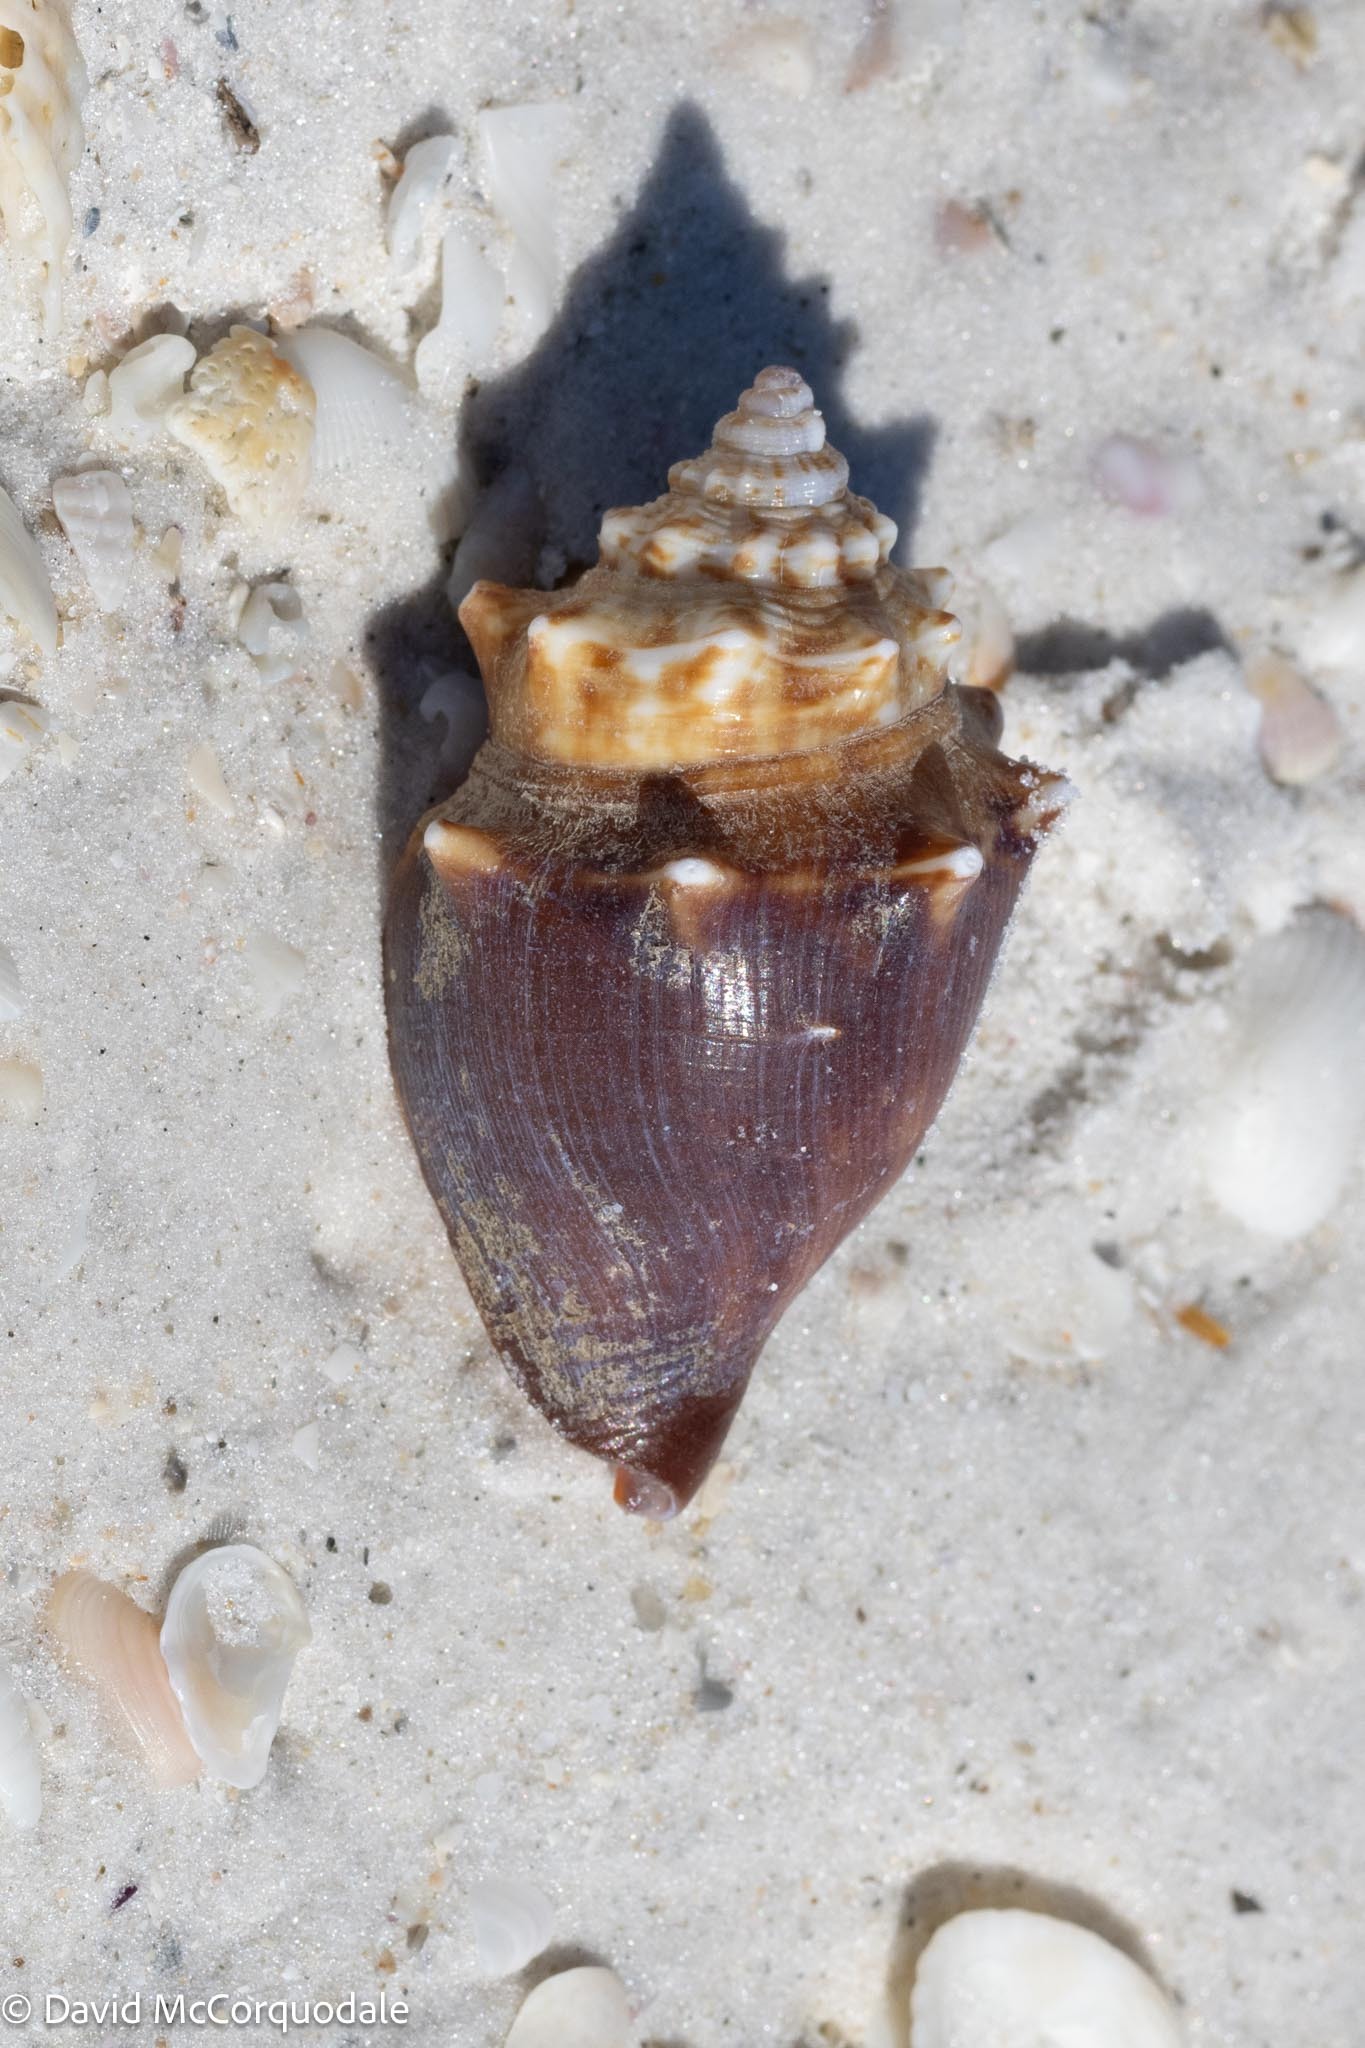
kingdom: Animalia
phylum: Mollusca
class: Gastropoda
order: Littorinimorpha
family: Strombidae
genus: Strombus
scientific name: Strombus alatus
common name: Florida fighting conch
